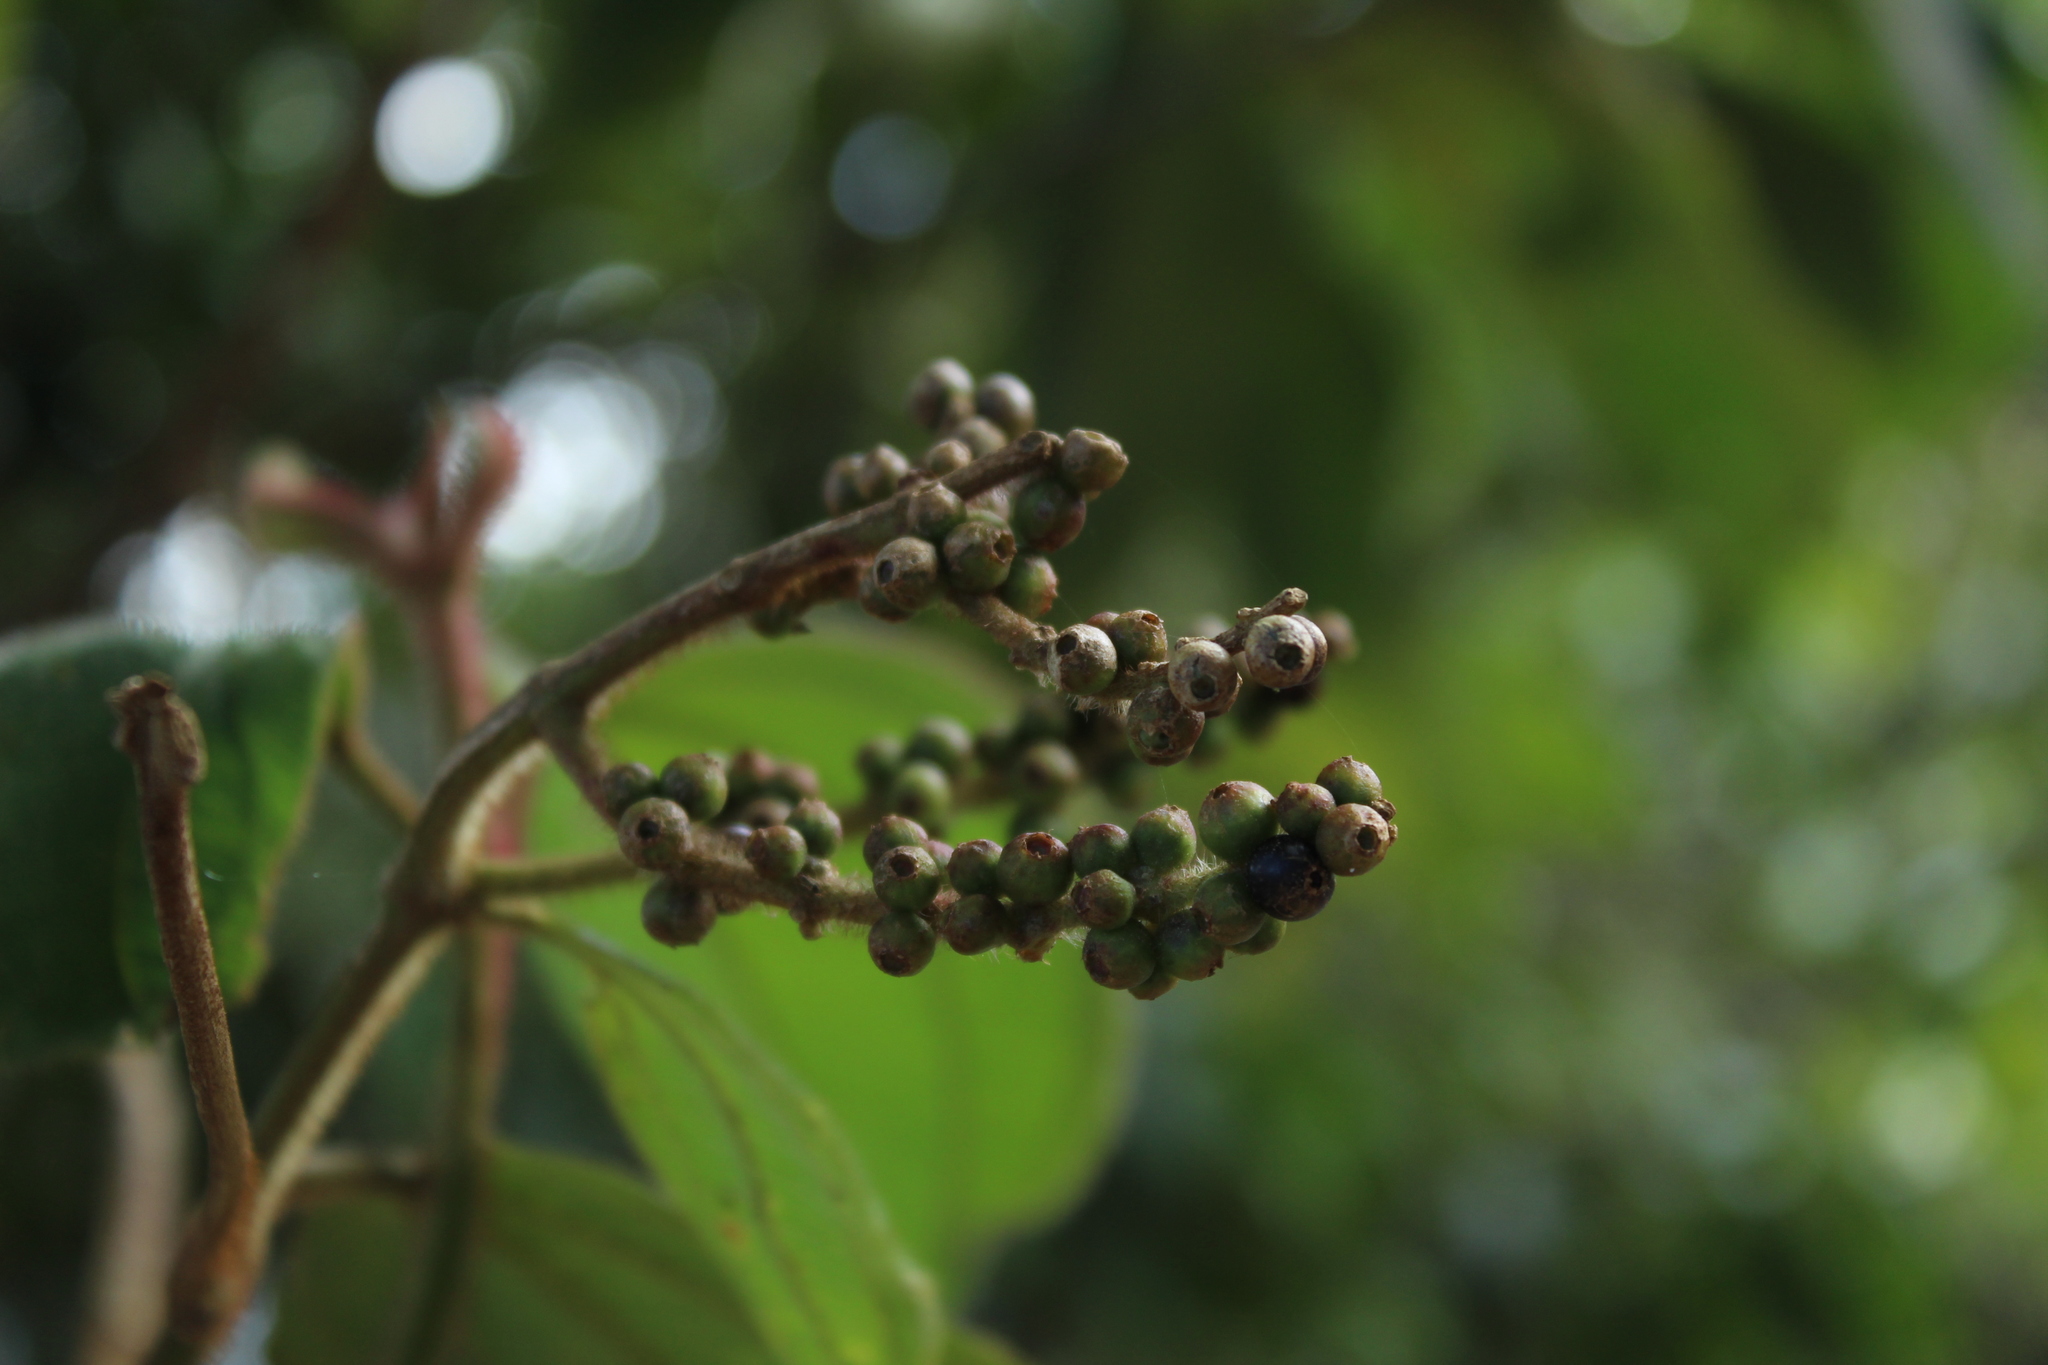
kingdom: Plantae
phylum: Tracheophyta
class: Magnoliopsida
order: Myrtales
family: Melastomataceae
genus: Miconia
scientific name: Miconia aeruginosa
